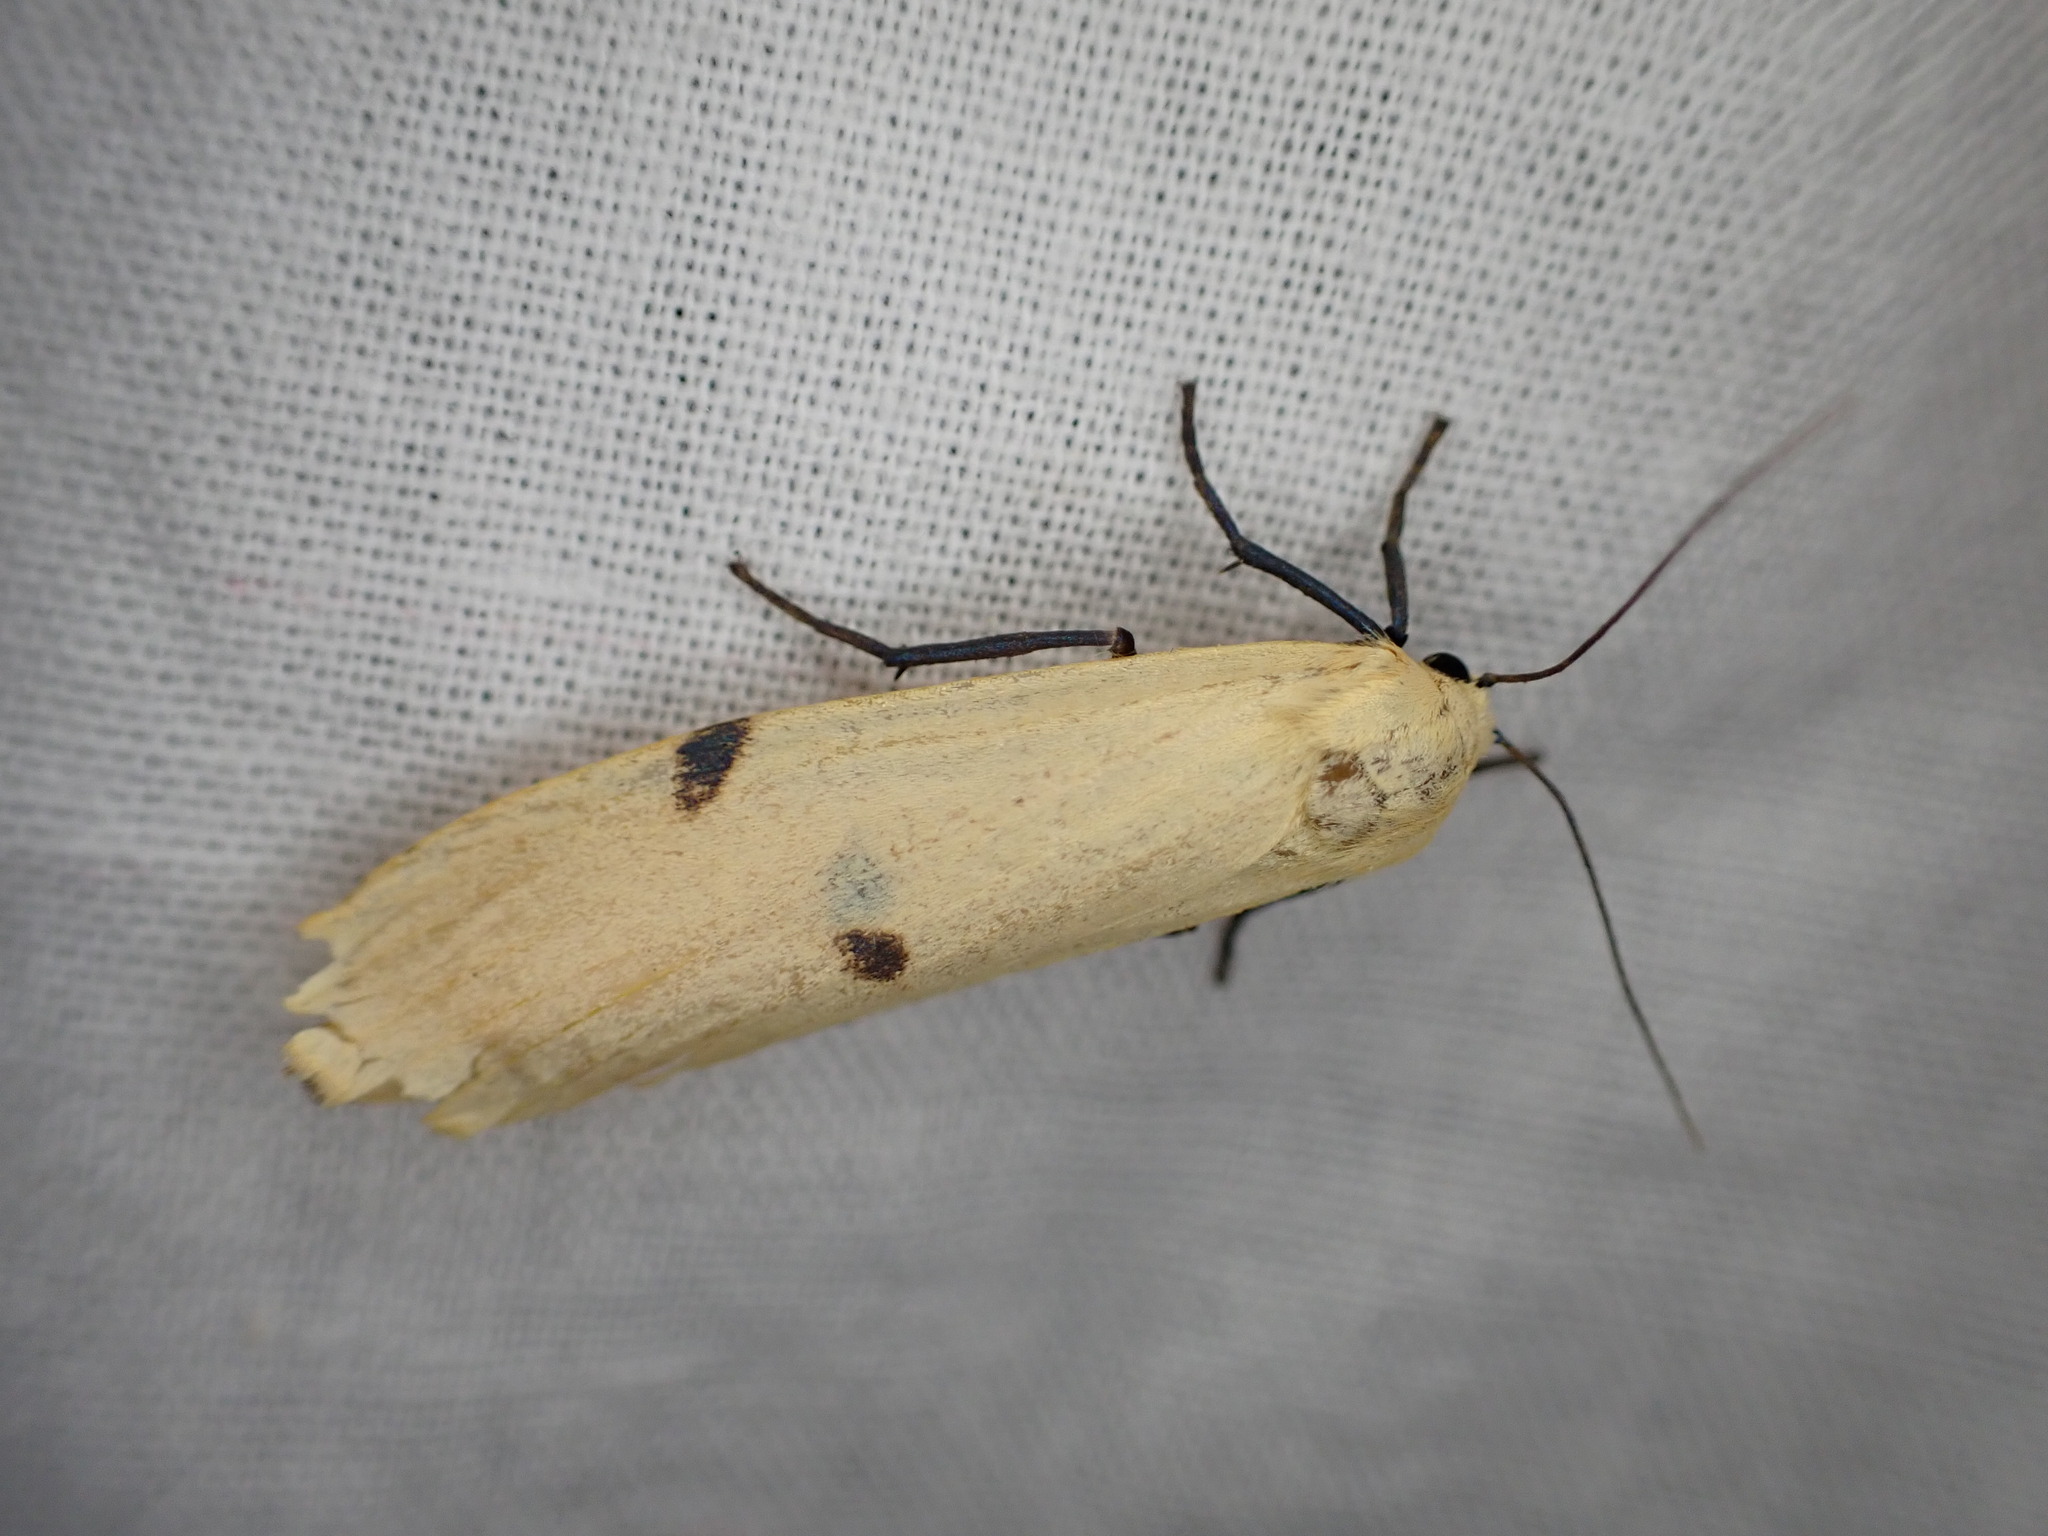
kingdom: Animalia
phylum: Arthropoda
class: Insecta
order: Lepidoptera
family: Erebidae
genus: Lithosia
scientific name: Lithosia quadra
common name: Four-spotted footman
